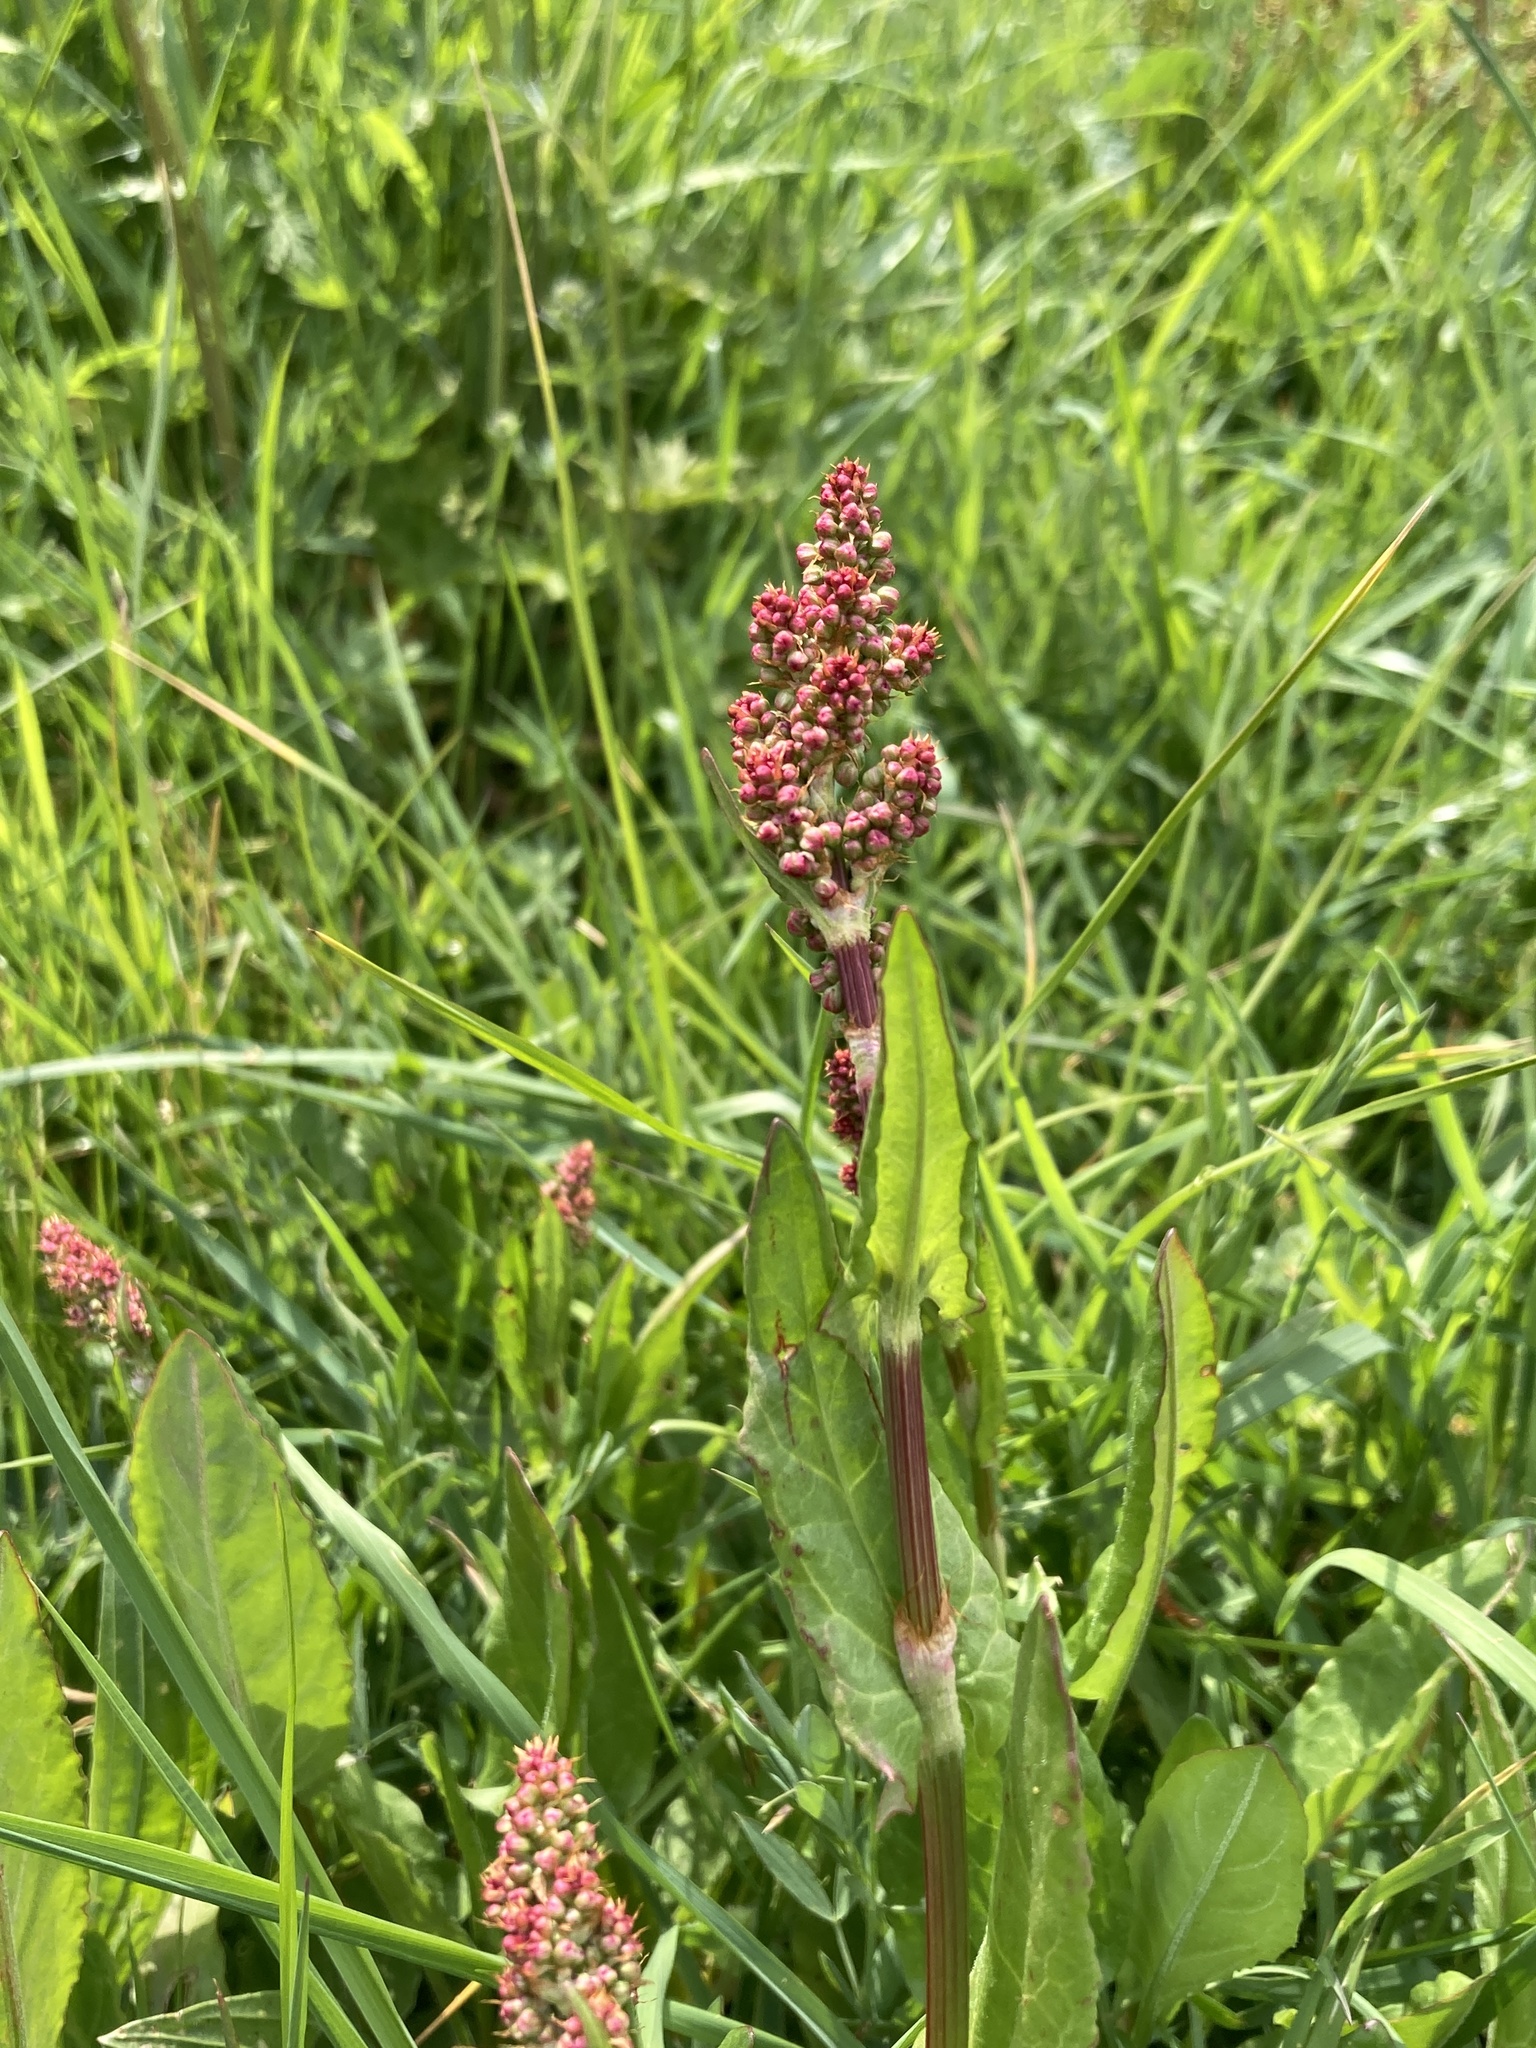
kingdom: Plantae
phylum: Tracheophyta
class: Magnoliopsida
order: Caryophyllales
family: Polygonaceae
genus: Rumex
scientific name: Rumex acetosa
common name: Garden sorrel
